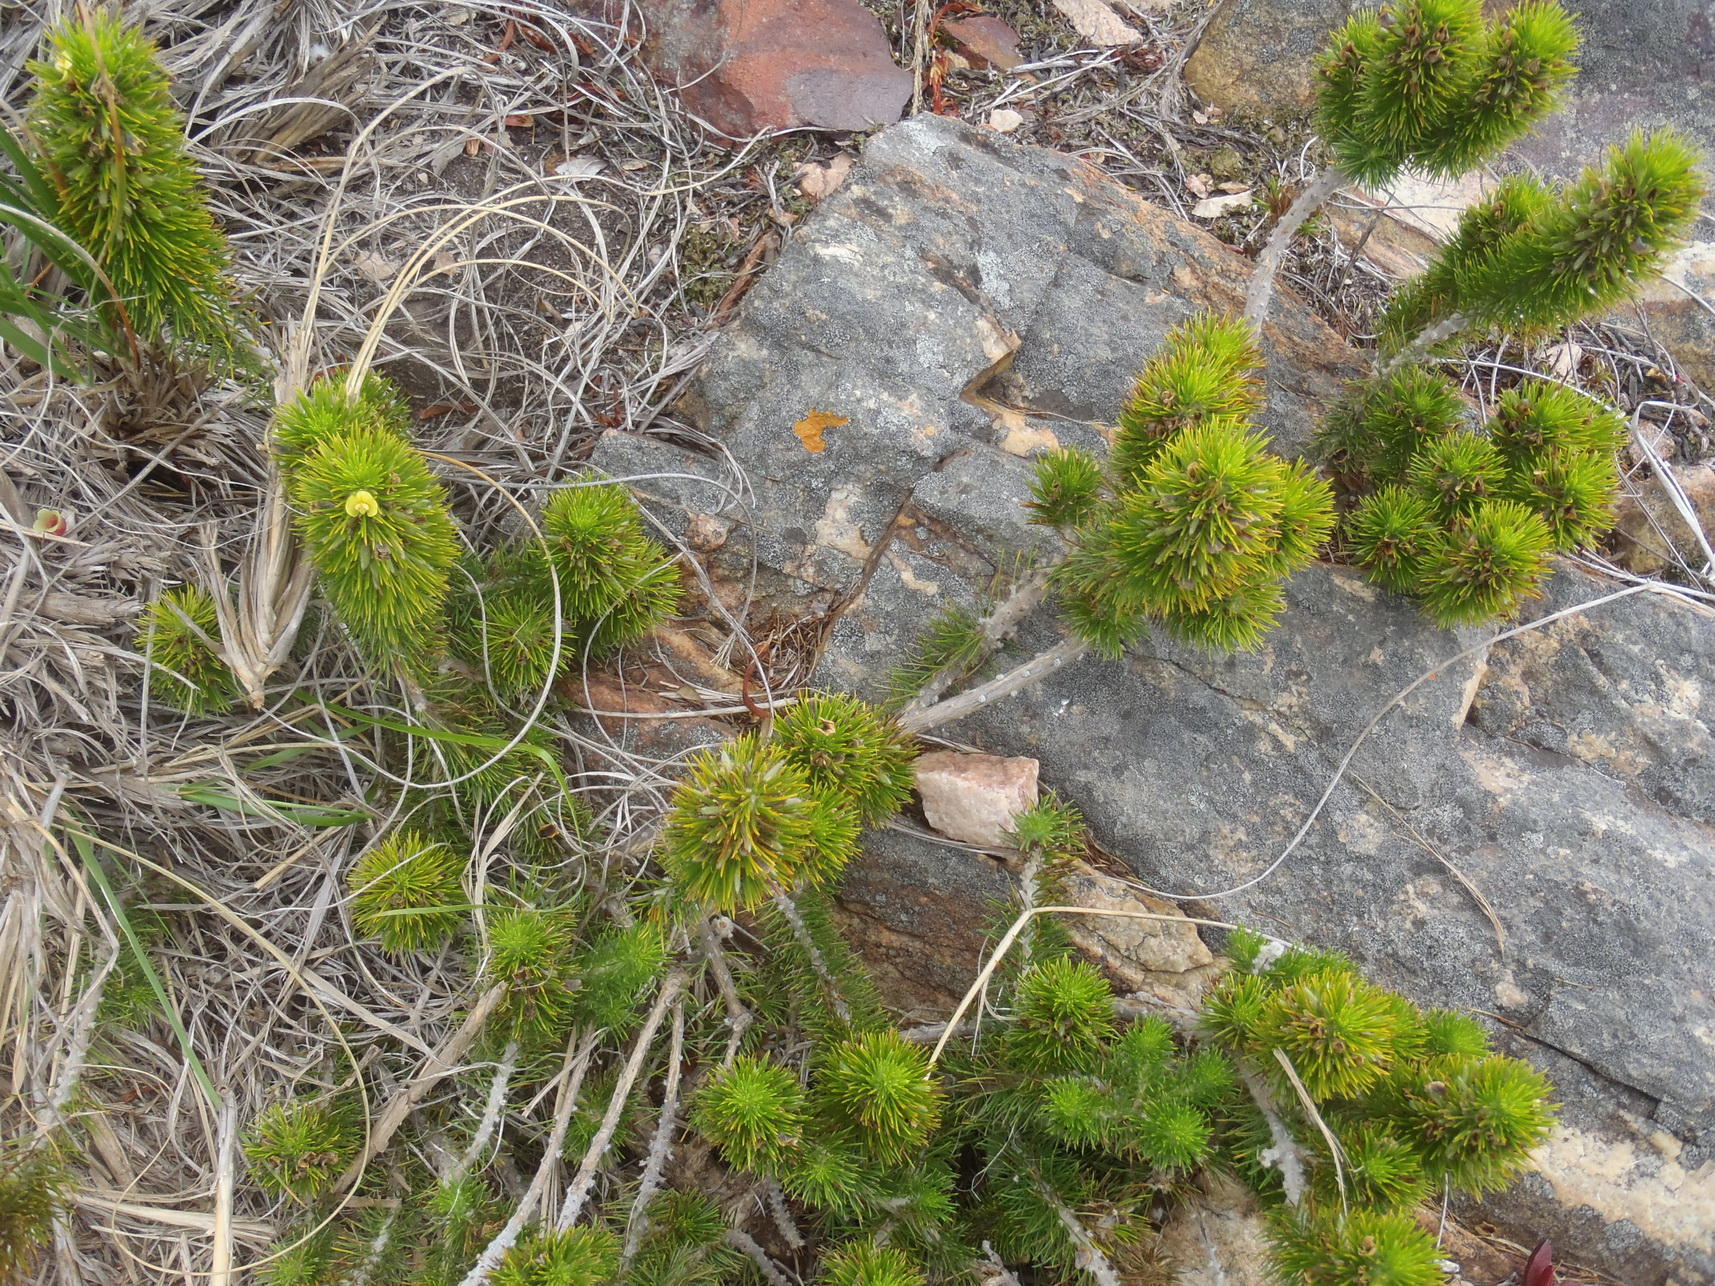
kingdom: Plantae
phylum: Tracheophyta
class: Magnoliopsida
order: Fabales
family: Fabaceae
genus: Aspalathus
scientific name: Aspalathus alopecurus
